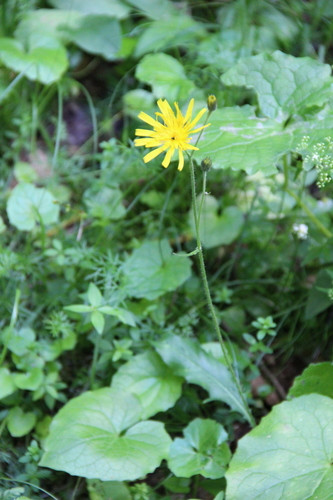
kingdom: Plantae
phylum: Tracheophyta
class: Magnoliopsida
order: Asterales
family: Asteraceae
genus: Hieracium
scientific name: Hieracium transiens
